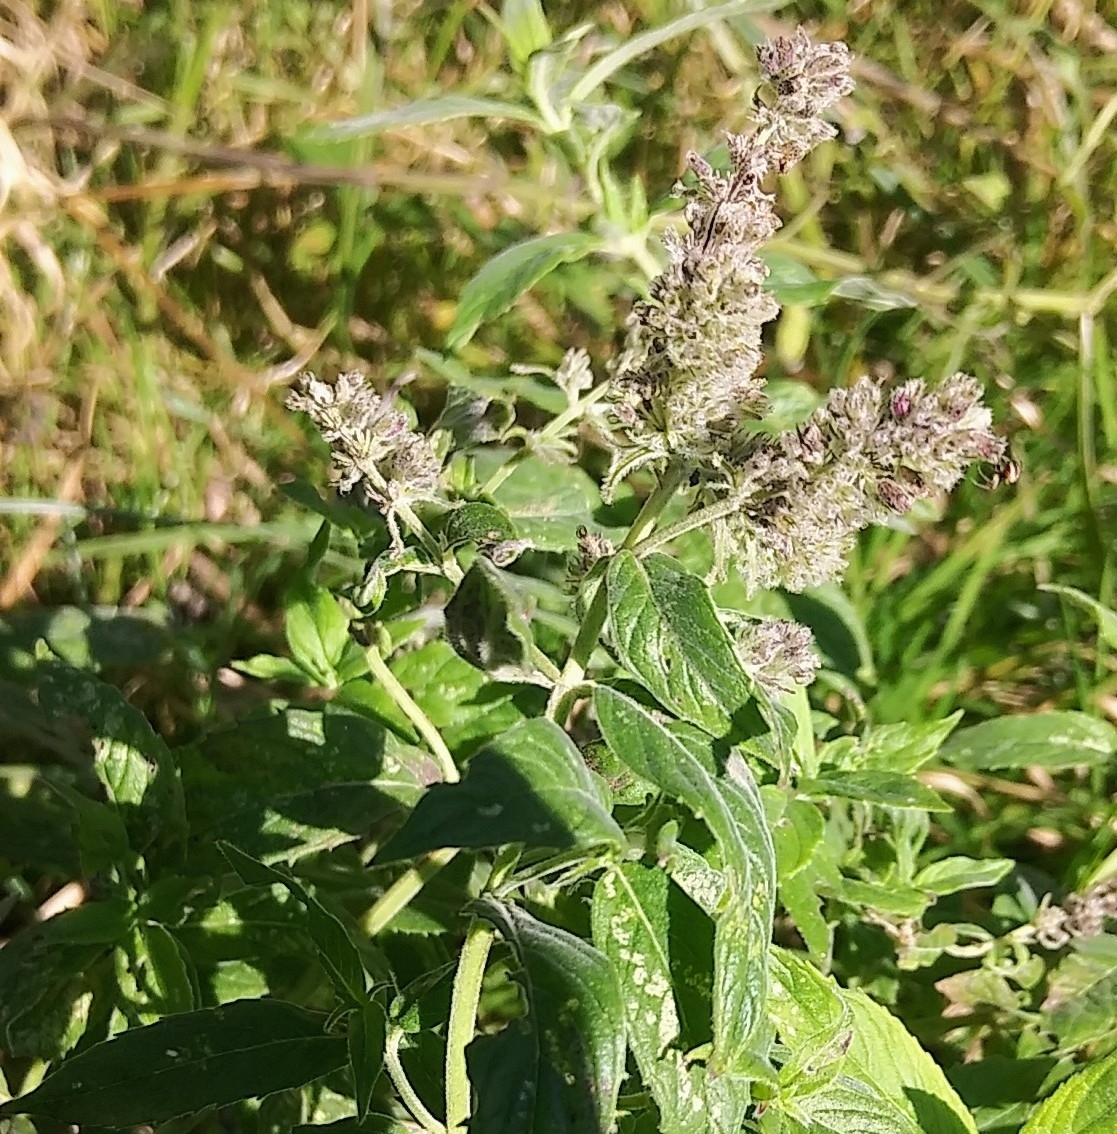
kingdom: Plantae
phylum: Tracheophyta
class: Magnoliopsida
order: Lamiales
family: Lamiaceae
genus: Mentha
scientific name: Mentha longifolia
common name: Horse mint
